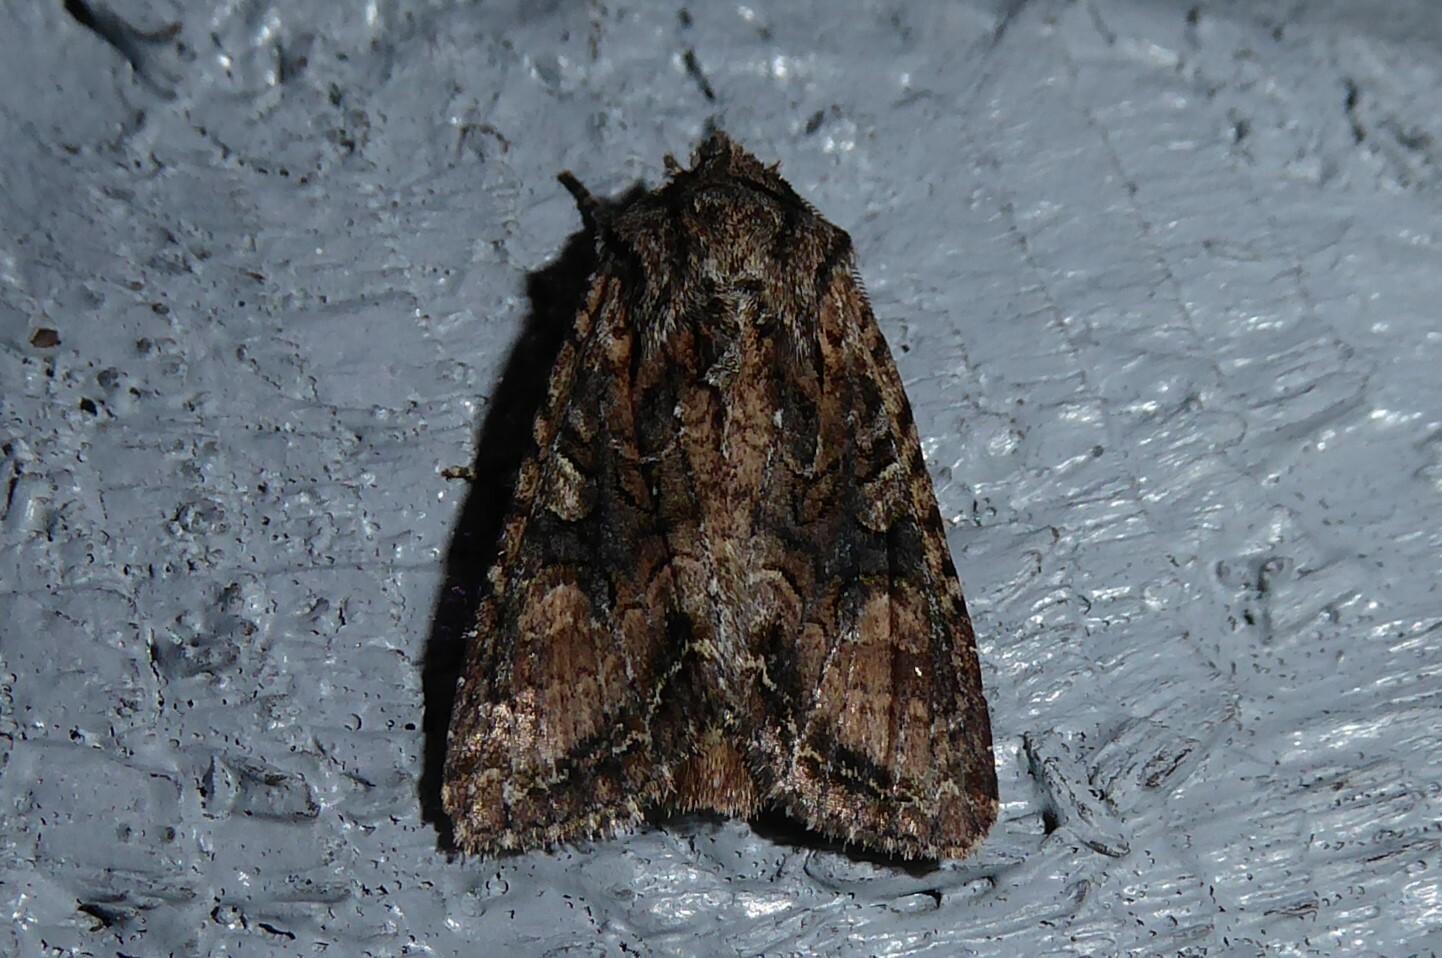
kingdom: Animalia
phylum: Arthropoda
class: Insecta
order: Lepidoptera
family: Noctuidae
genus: Ichneutica
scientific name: Ichneutica mutans
